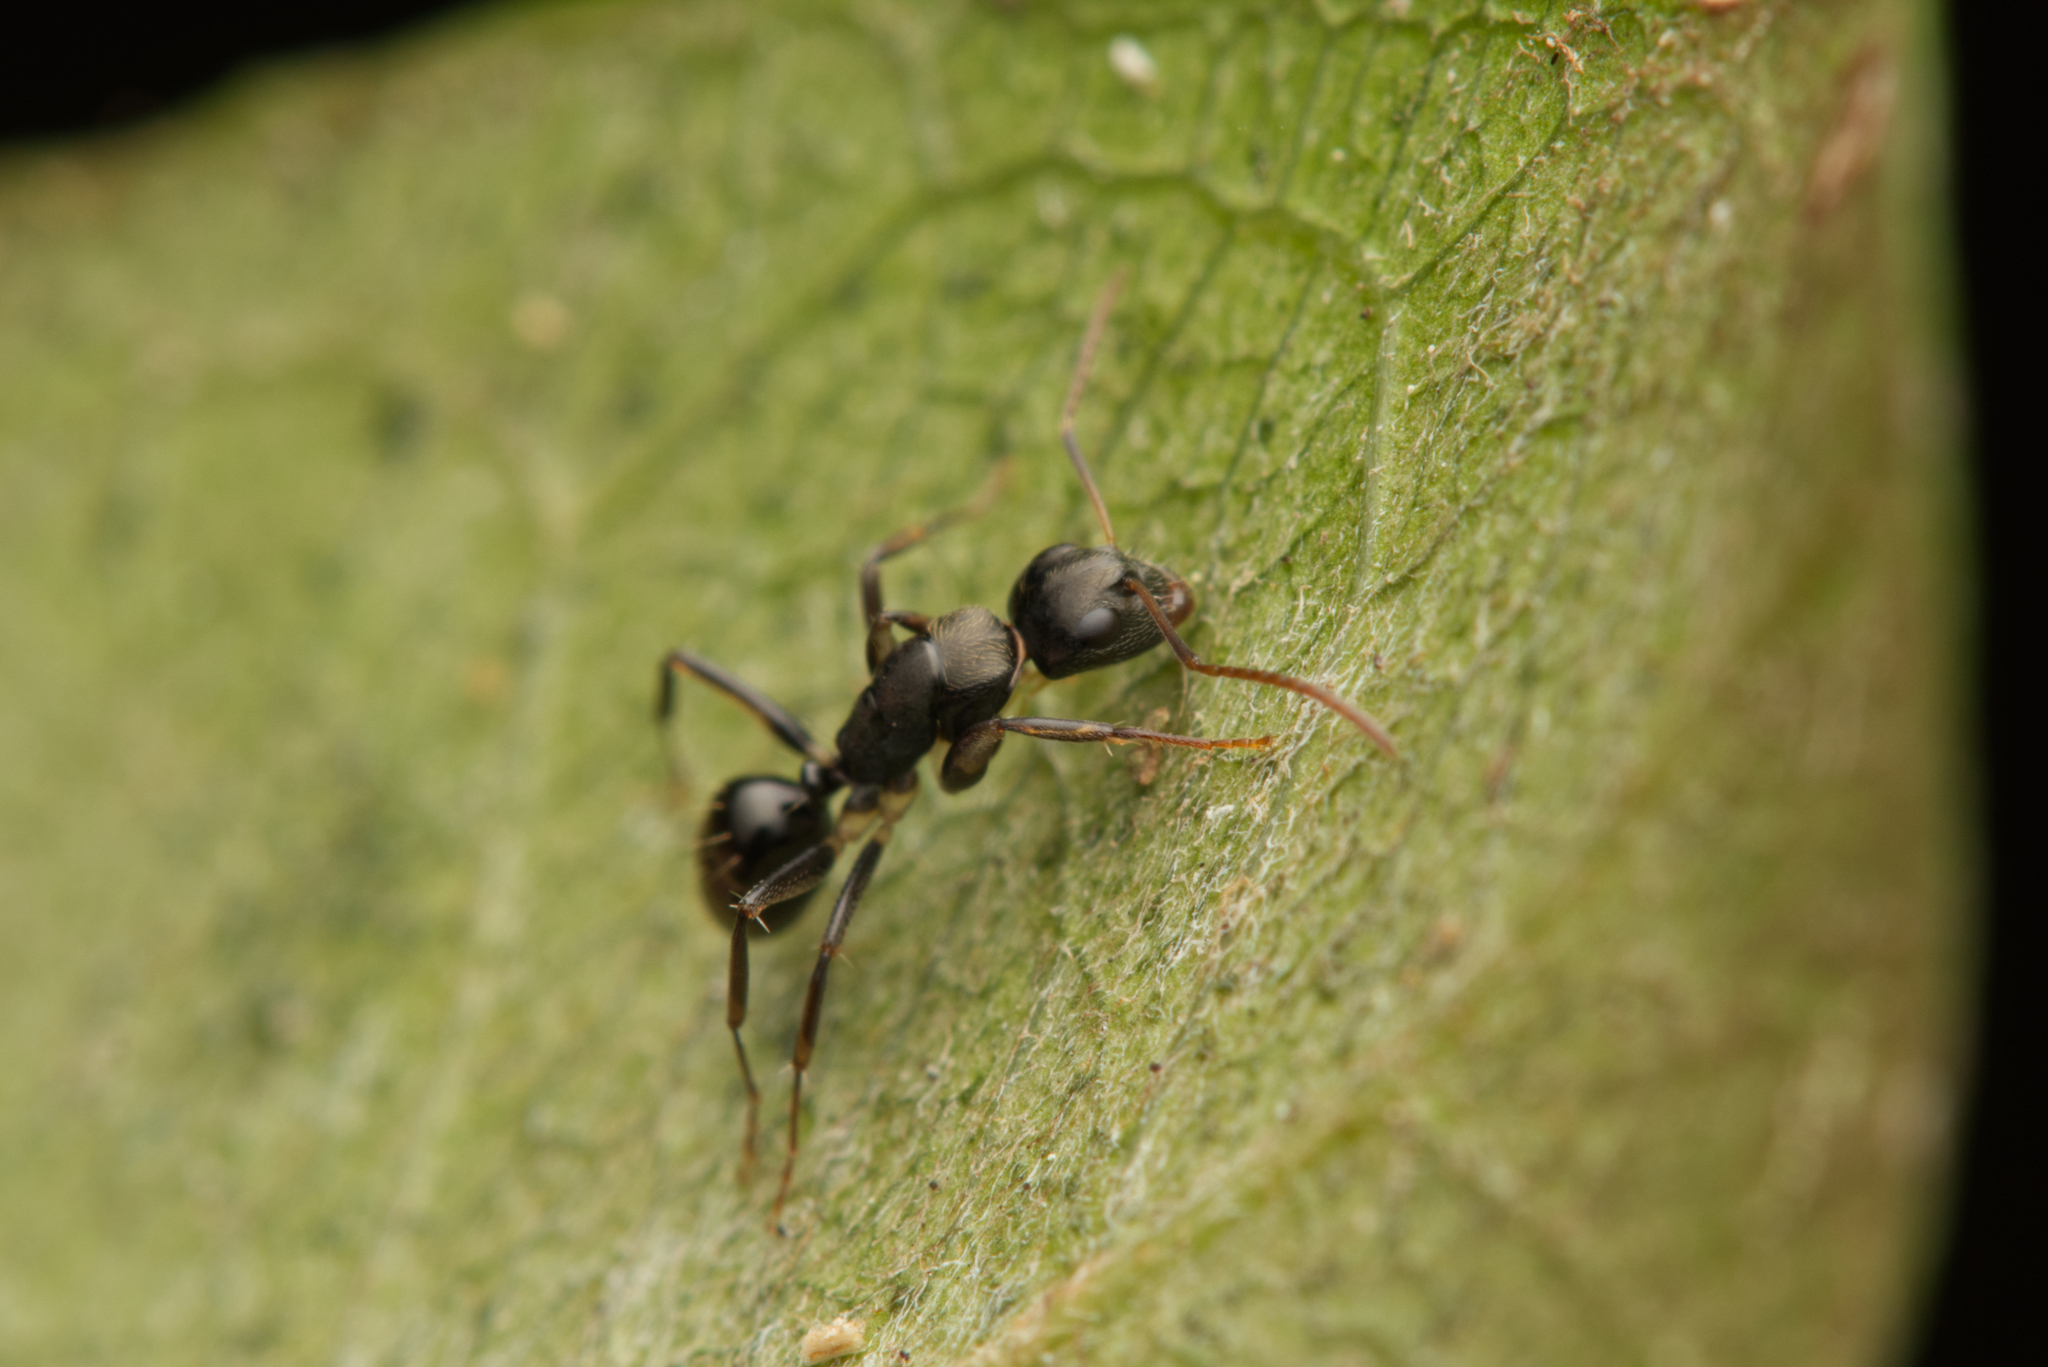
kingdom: Animalia
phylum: Arthropoda
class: Insecta
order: Hymenoptera
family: Formicidae
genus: Camponotus
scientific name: Camponotus froggatti
